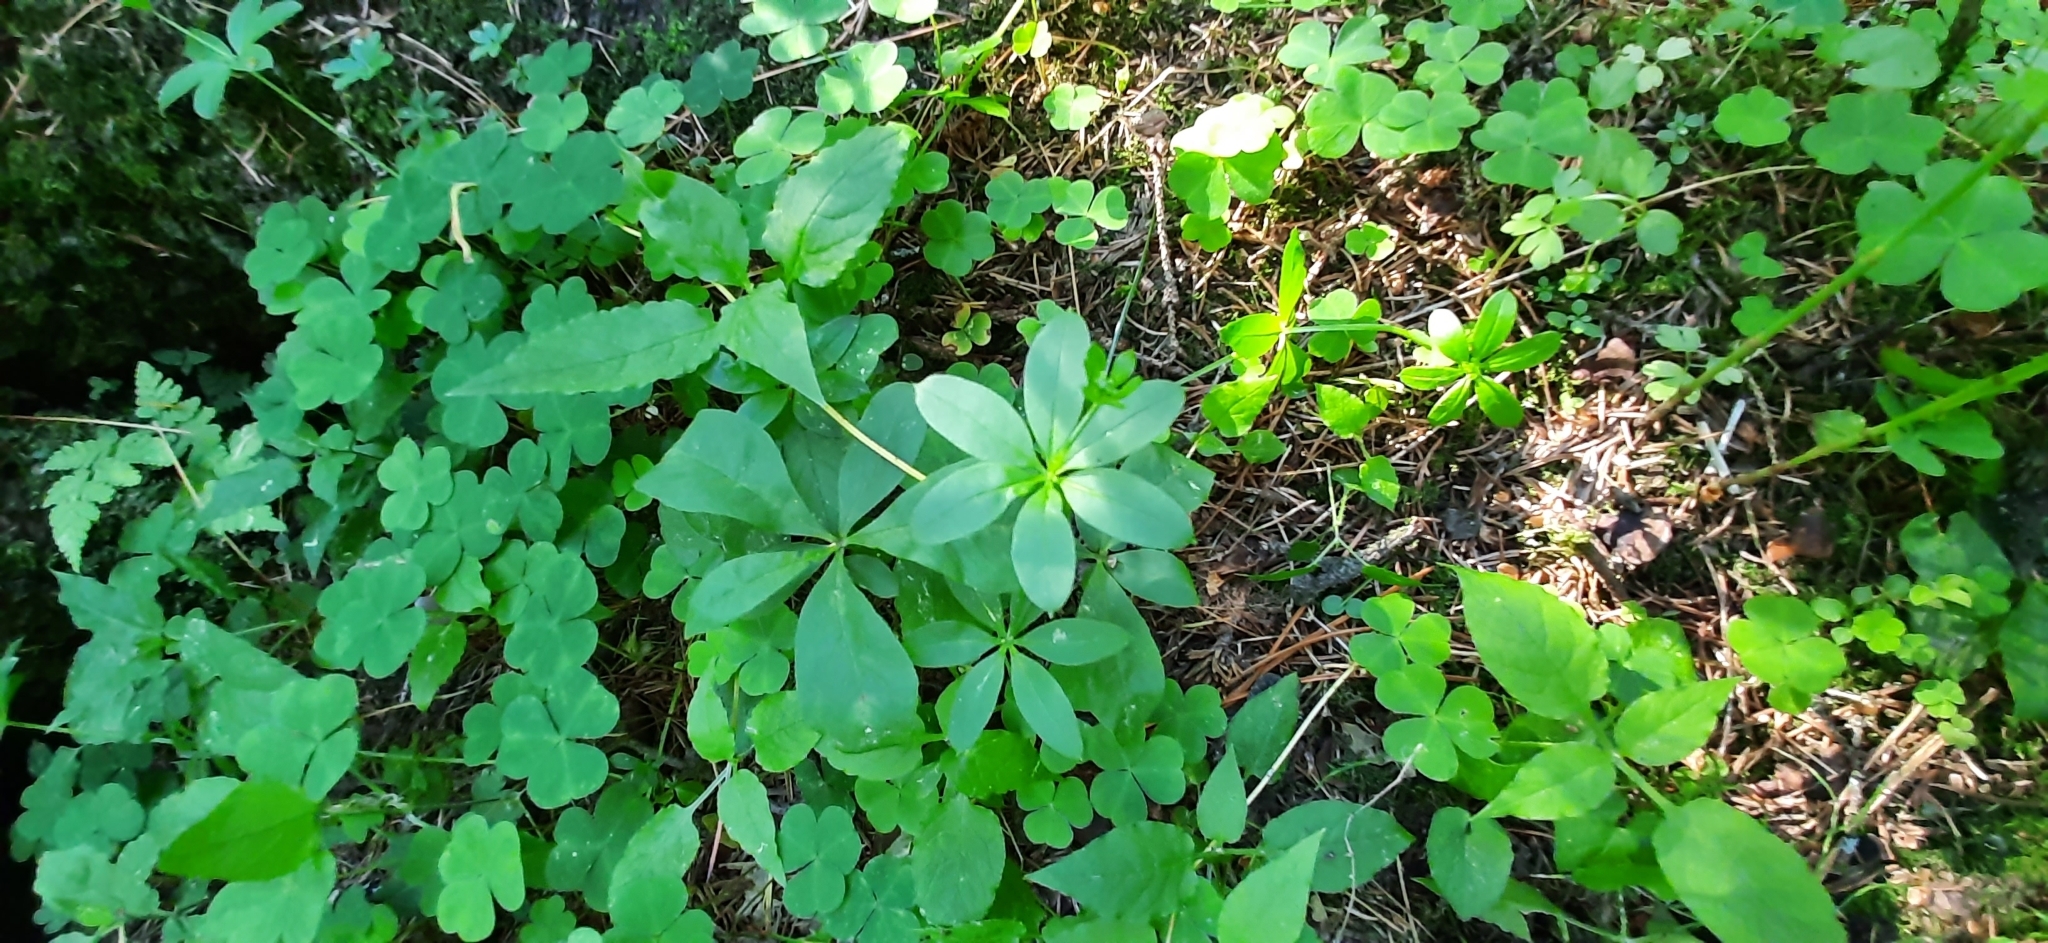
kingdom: Plantae
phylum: Tracheophyta
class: Magnoliopsida
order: Gentianales
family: Rubiaceae
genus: Galium
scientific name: Galium triflorum
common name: Fragrant bedstraw
